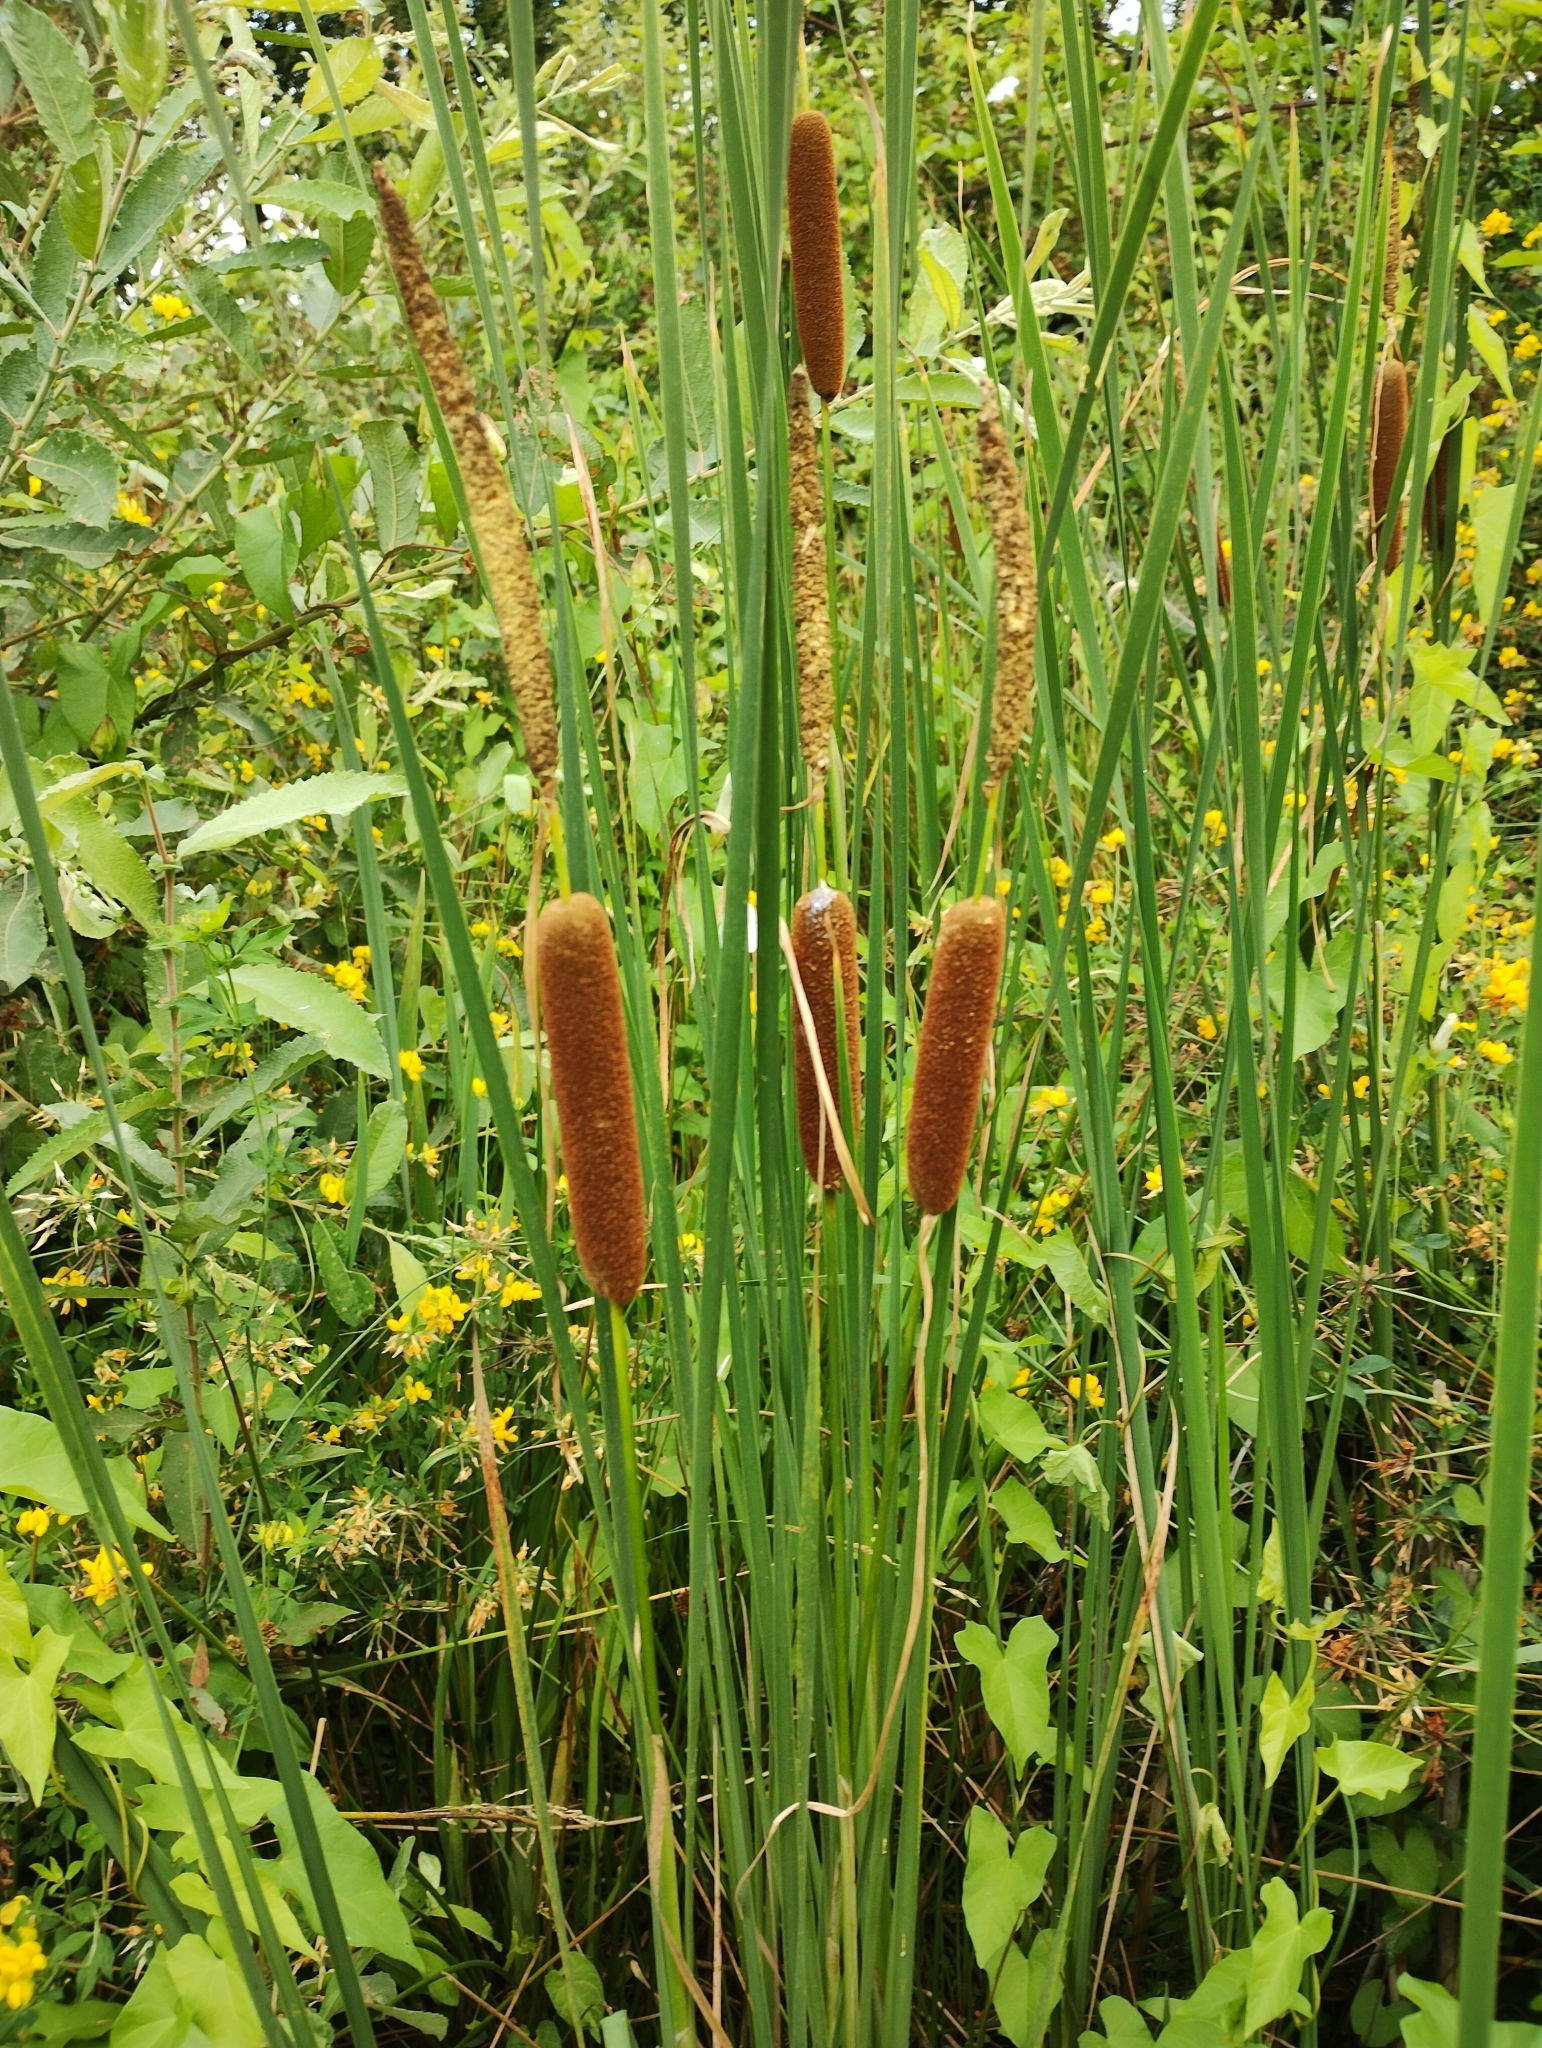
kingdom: Plantae
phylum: Tracheophyta
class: Liliopsida
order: Poales
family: Typhaceae
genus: Typha
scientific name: Typha laxmannii
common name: Laxman’s bulrush
